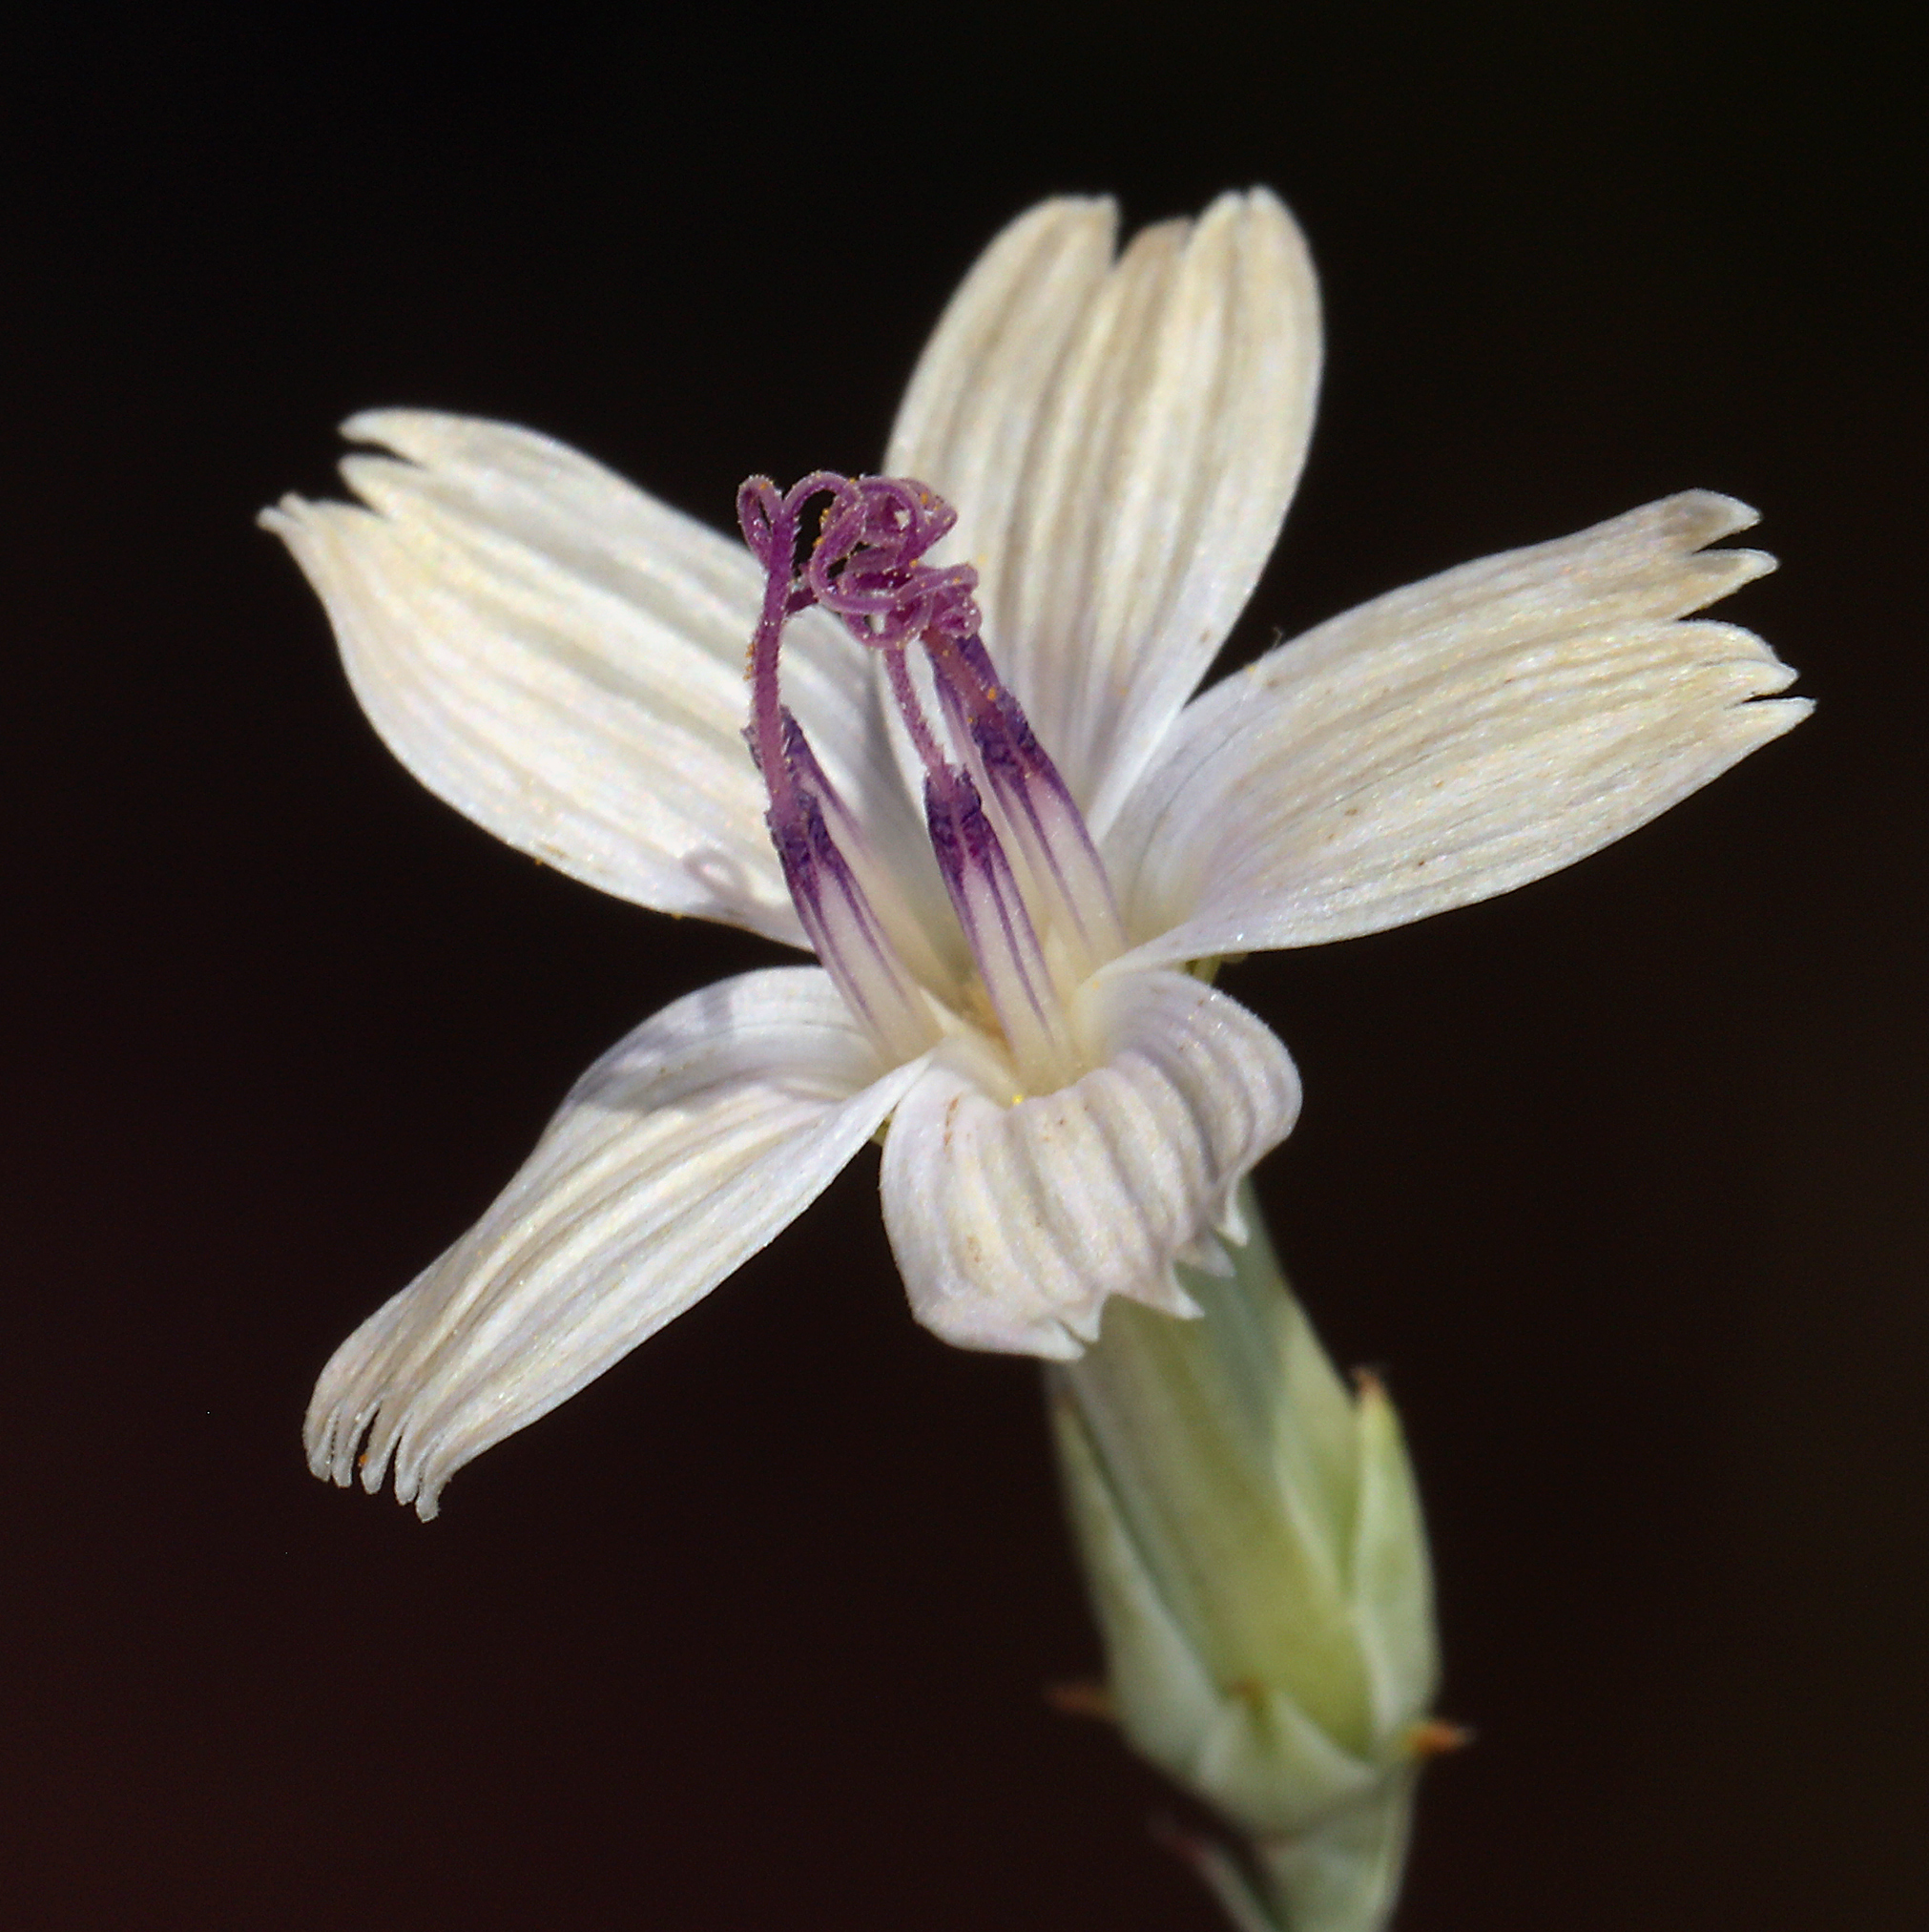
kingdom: Plantae
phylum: Tracheophyta
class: Magnoliopsida
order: Asterales
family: Asteraceae
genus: Stephanomeria
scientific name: Stephanomeria pauciflora
